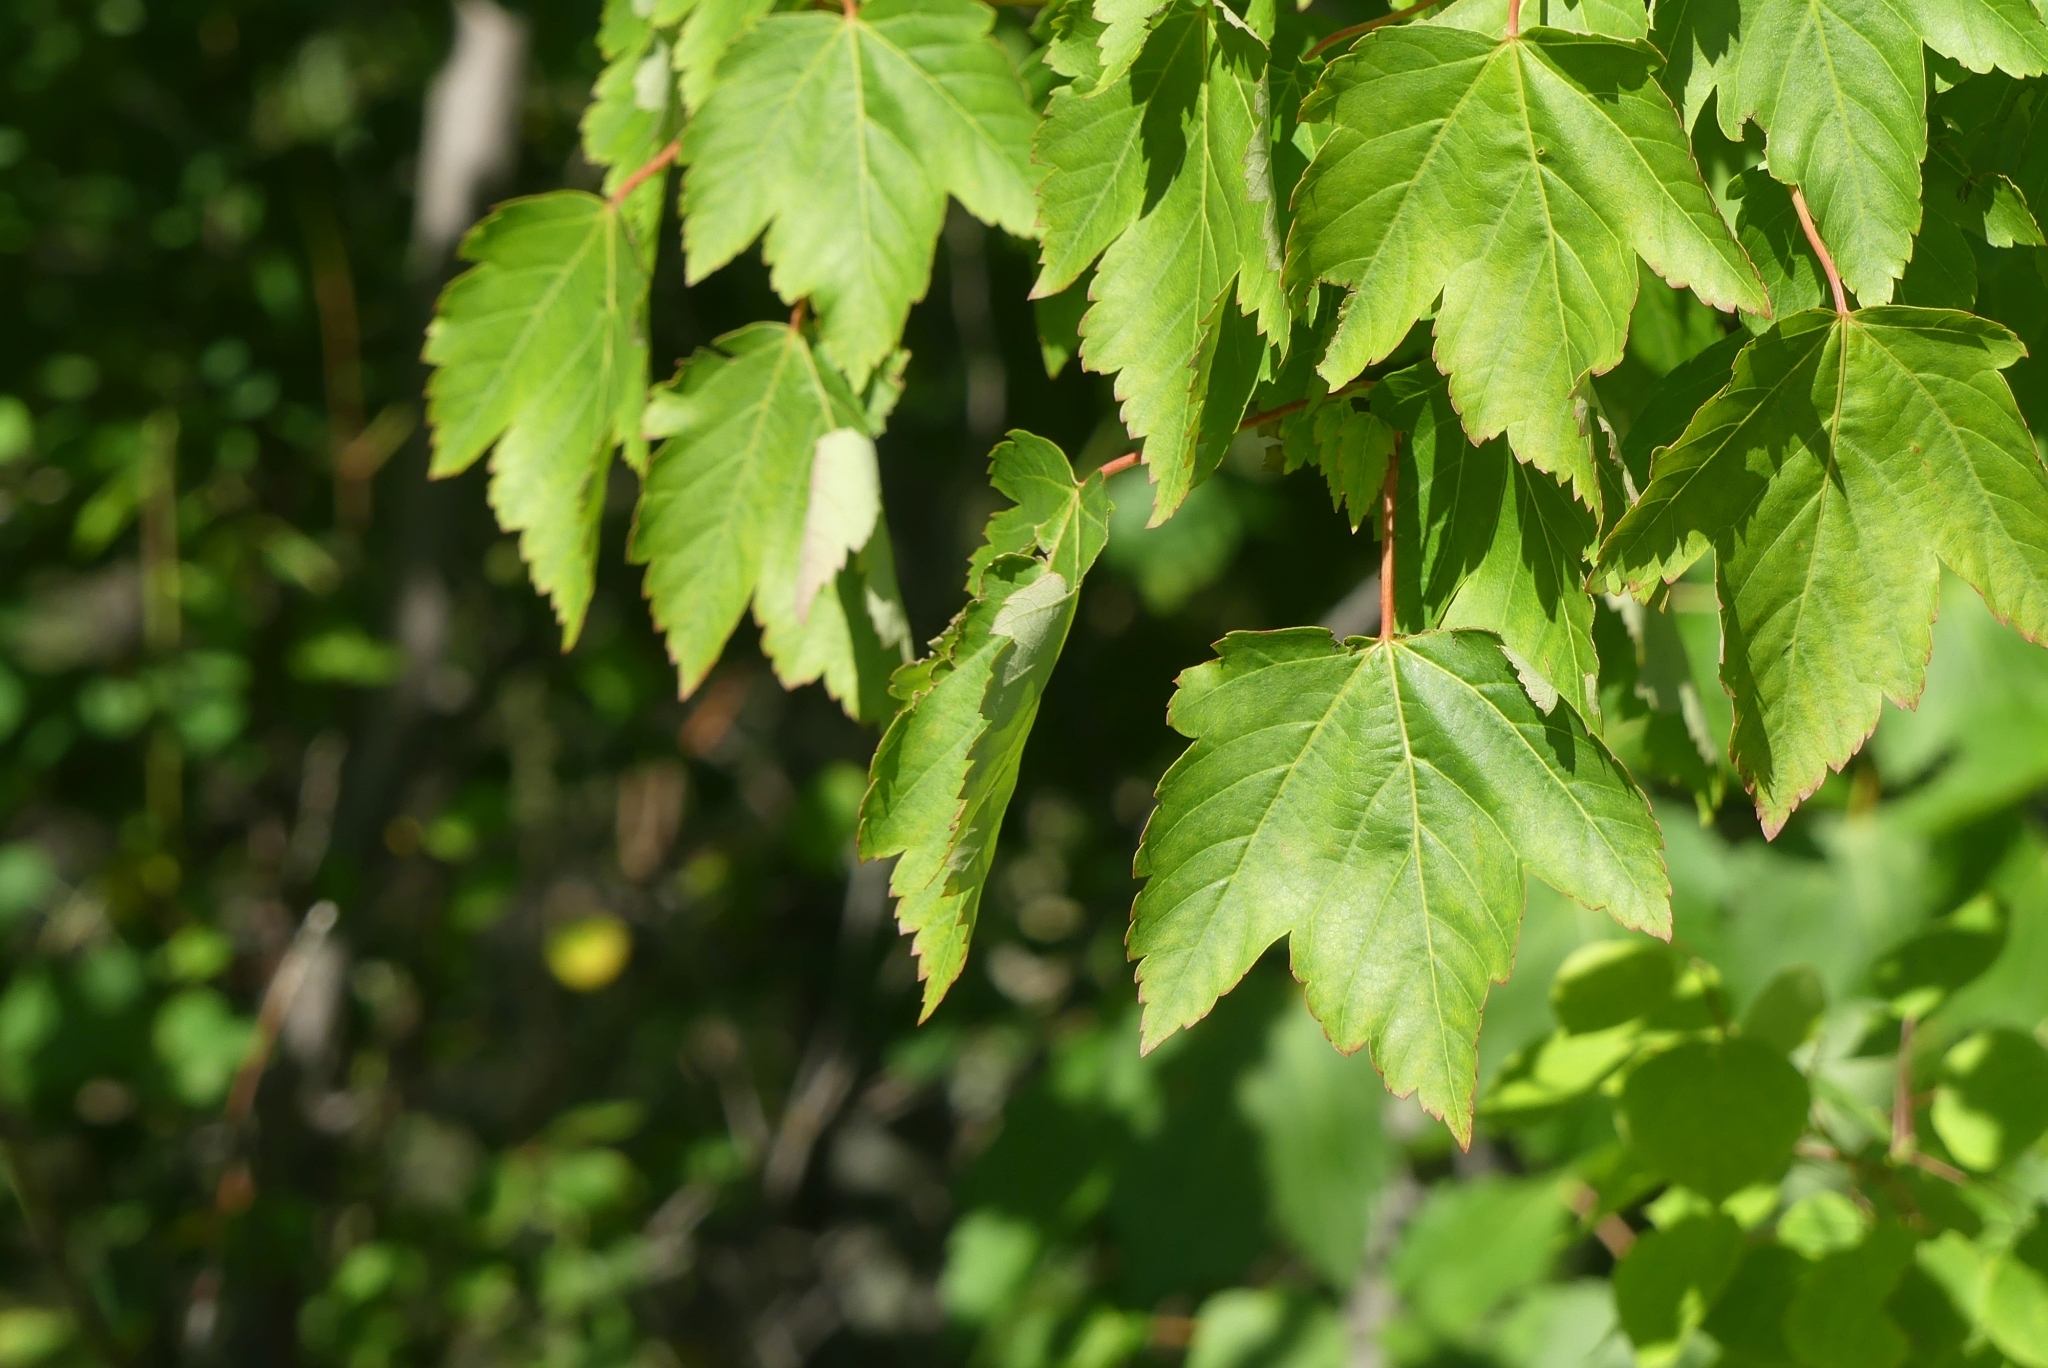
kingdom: Plantae
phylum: Tracheophyta
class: Magnoliopsida
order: Sapindales
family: Sapindaceae
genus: Acer
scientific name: Acer glabrum
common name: Rocky mountain maple
